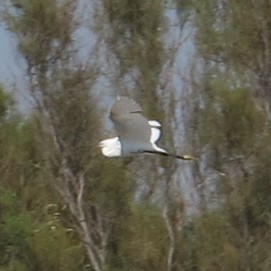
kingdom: Animalia
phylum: Chordata
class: Aves
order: Pelecaniformes
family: Ardeidae
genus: Egretta
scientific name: Egretta garzetta
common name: Little egret
